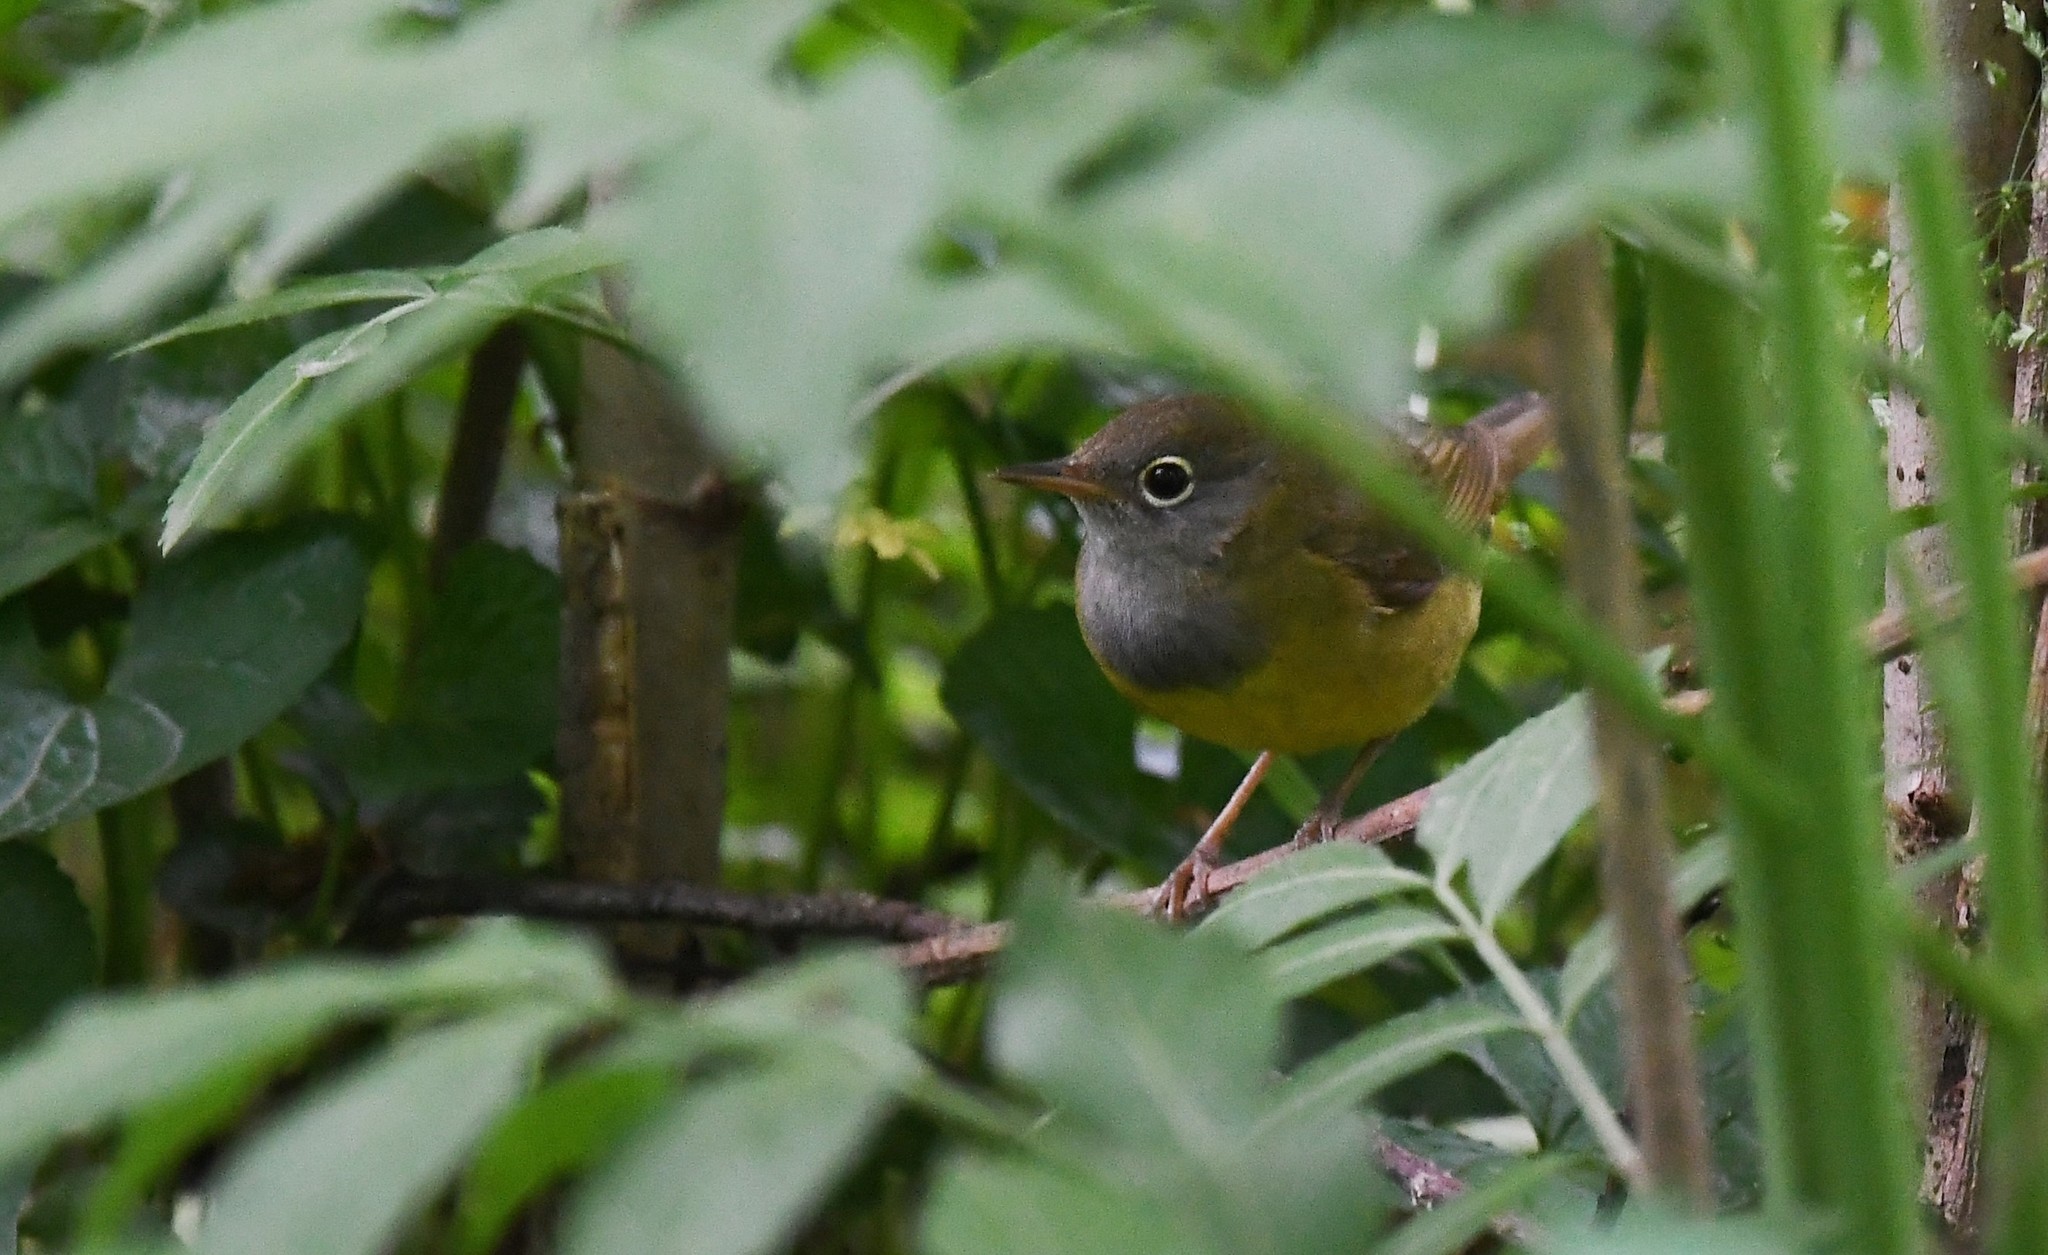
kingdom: Animalia
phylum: Chordata
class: Aves
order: Passeriformes
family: Parulidae
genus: Oporornis
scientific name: Oporornis agilis
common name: Connecticut warbler
